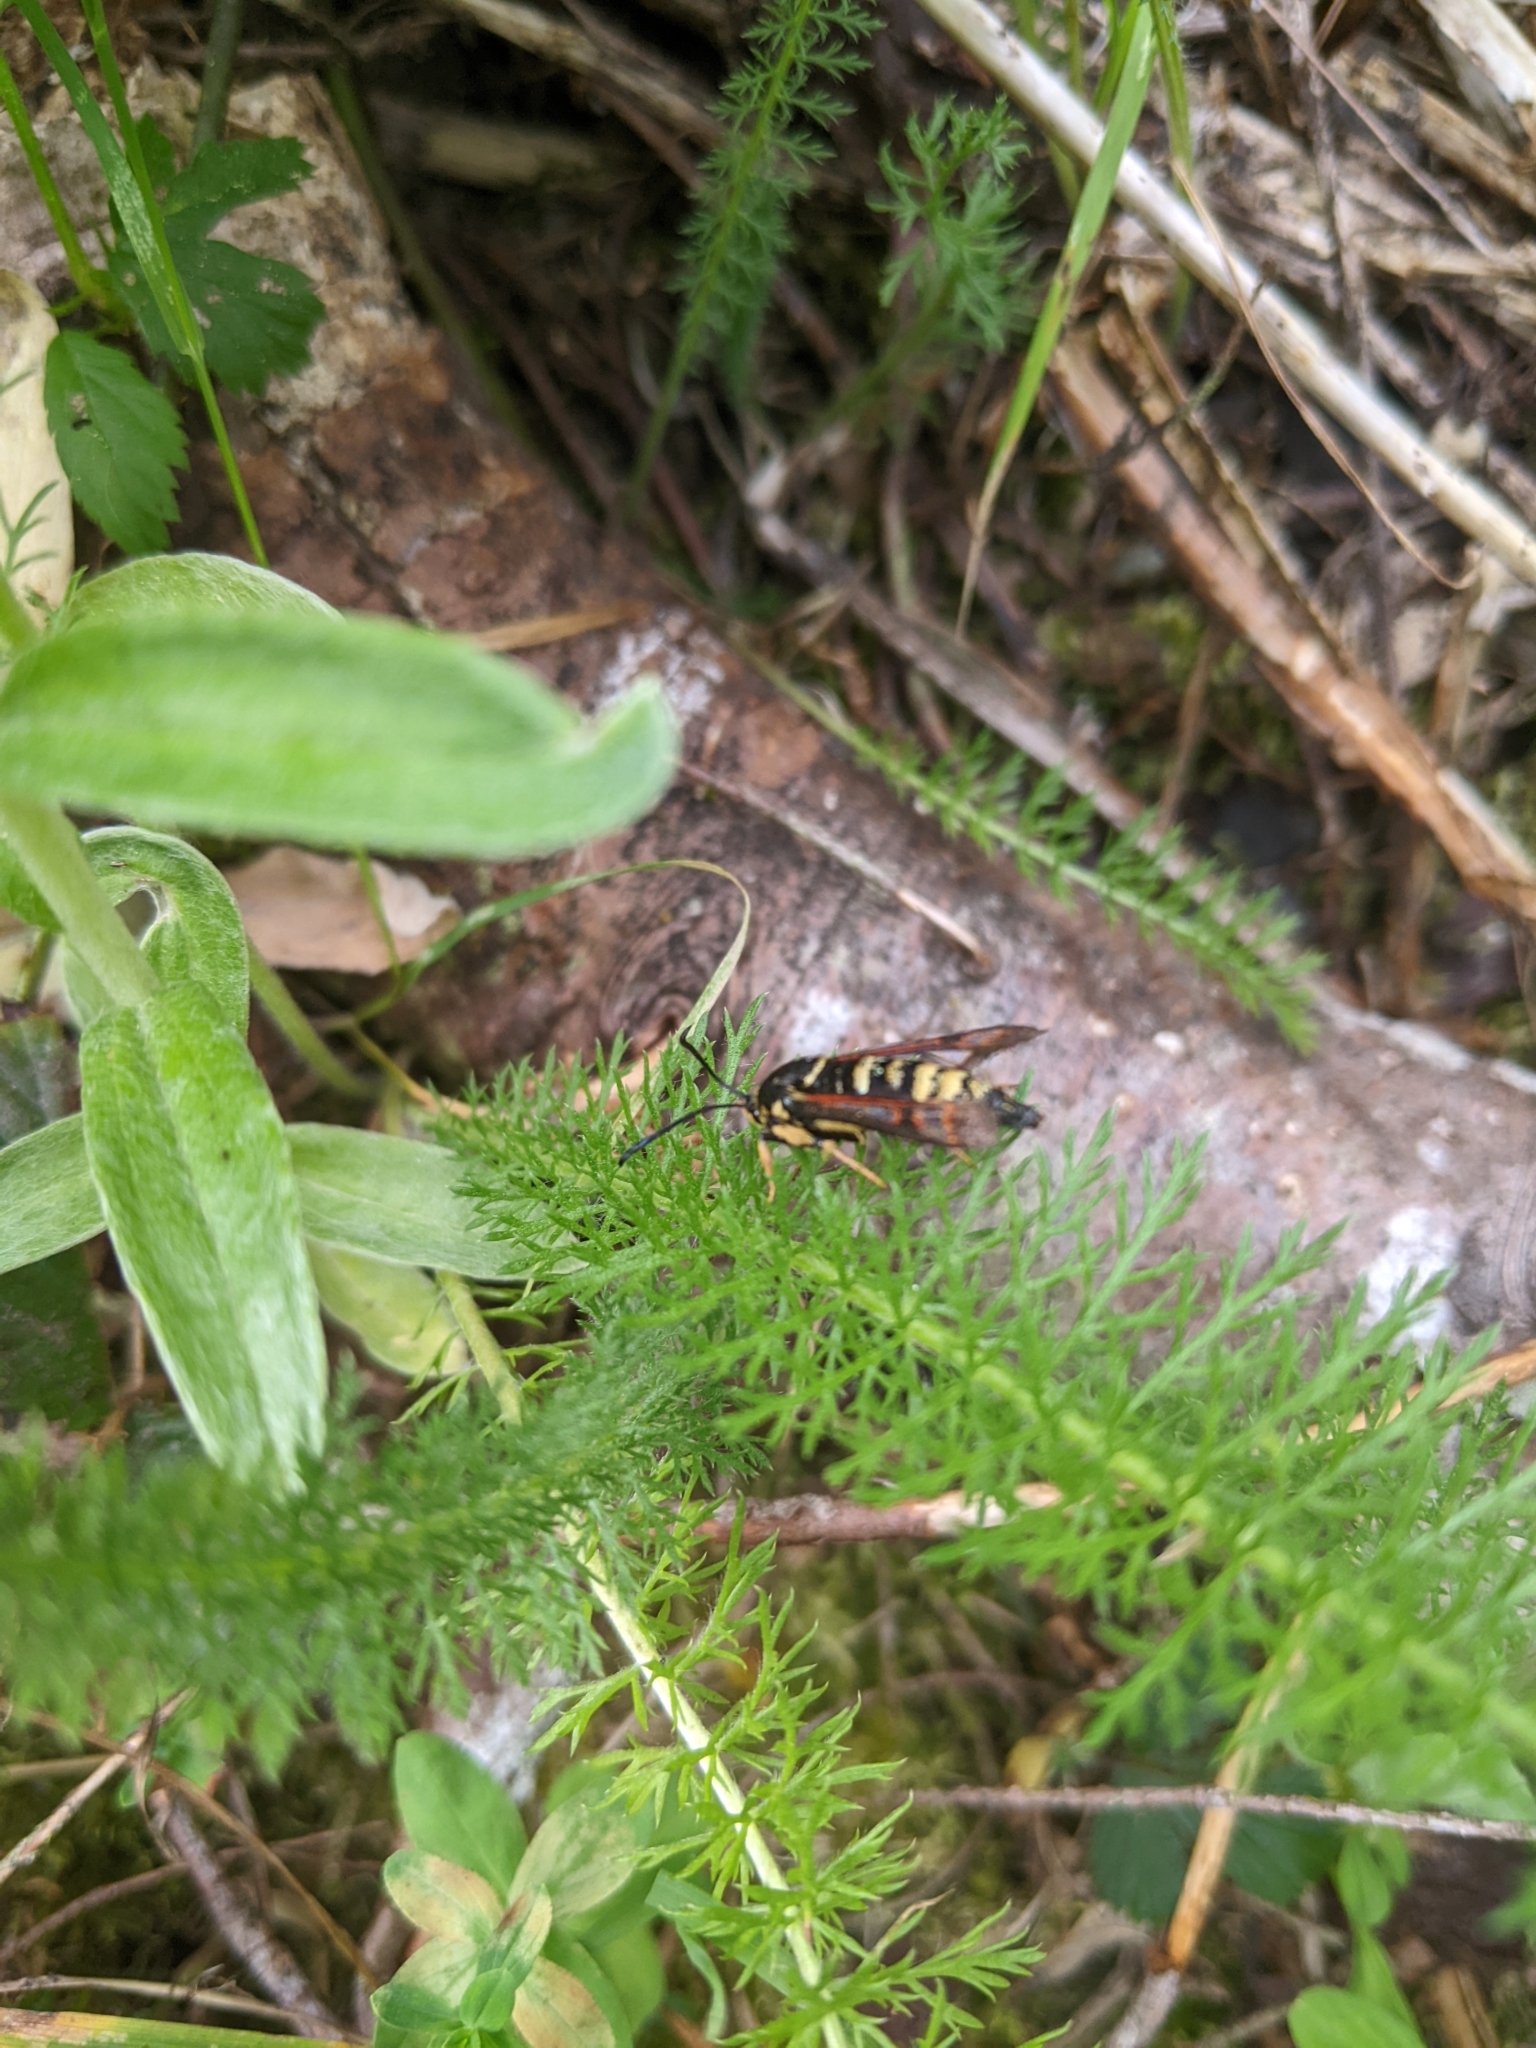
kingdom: Animalia
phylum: Arthropoda
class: Insecta
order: Lepidoptera
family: Sesiidae
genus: Albuna
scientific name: Albuna pyramidalis
